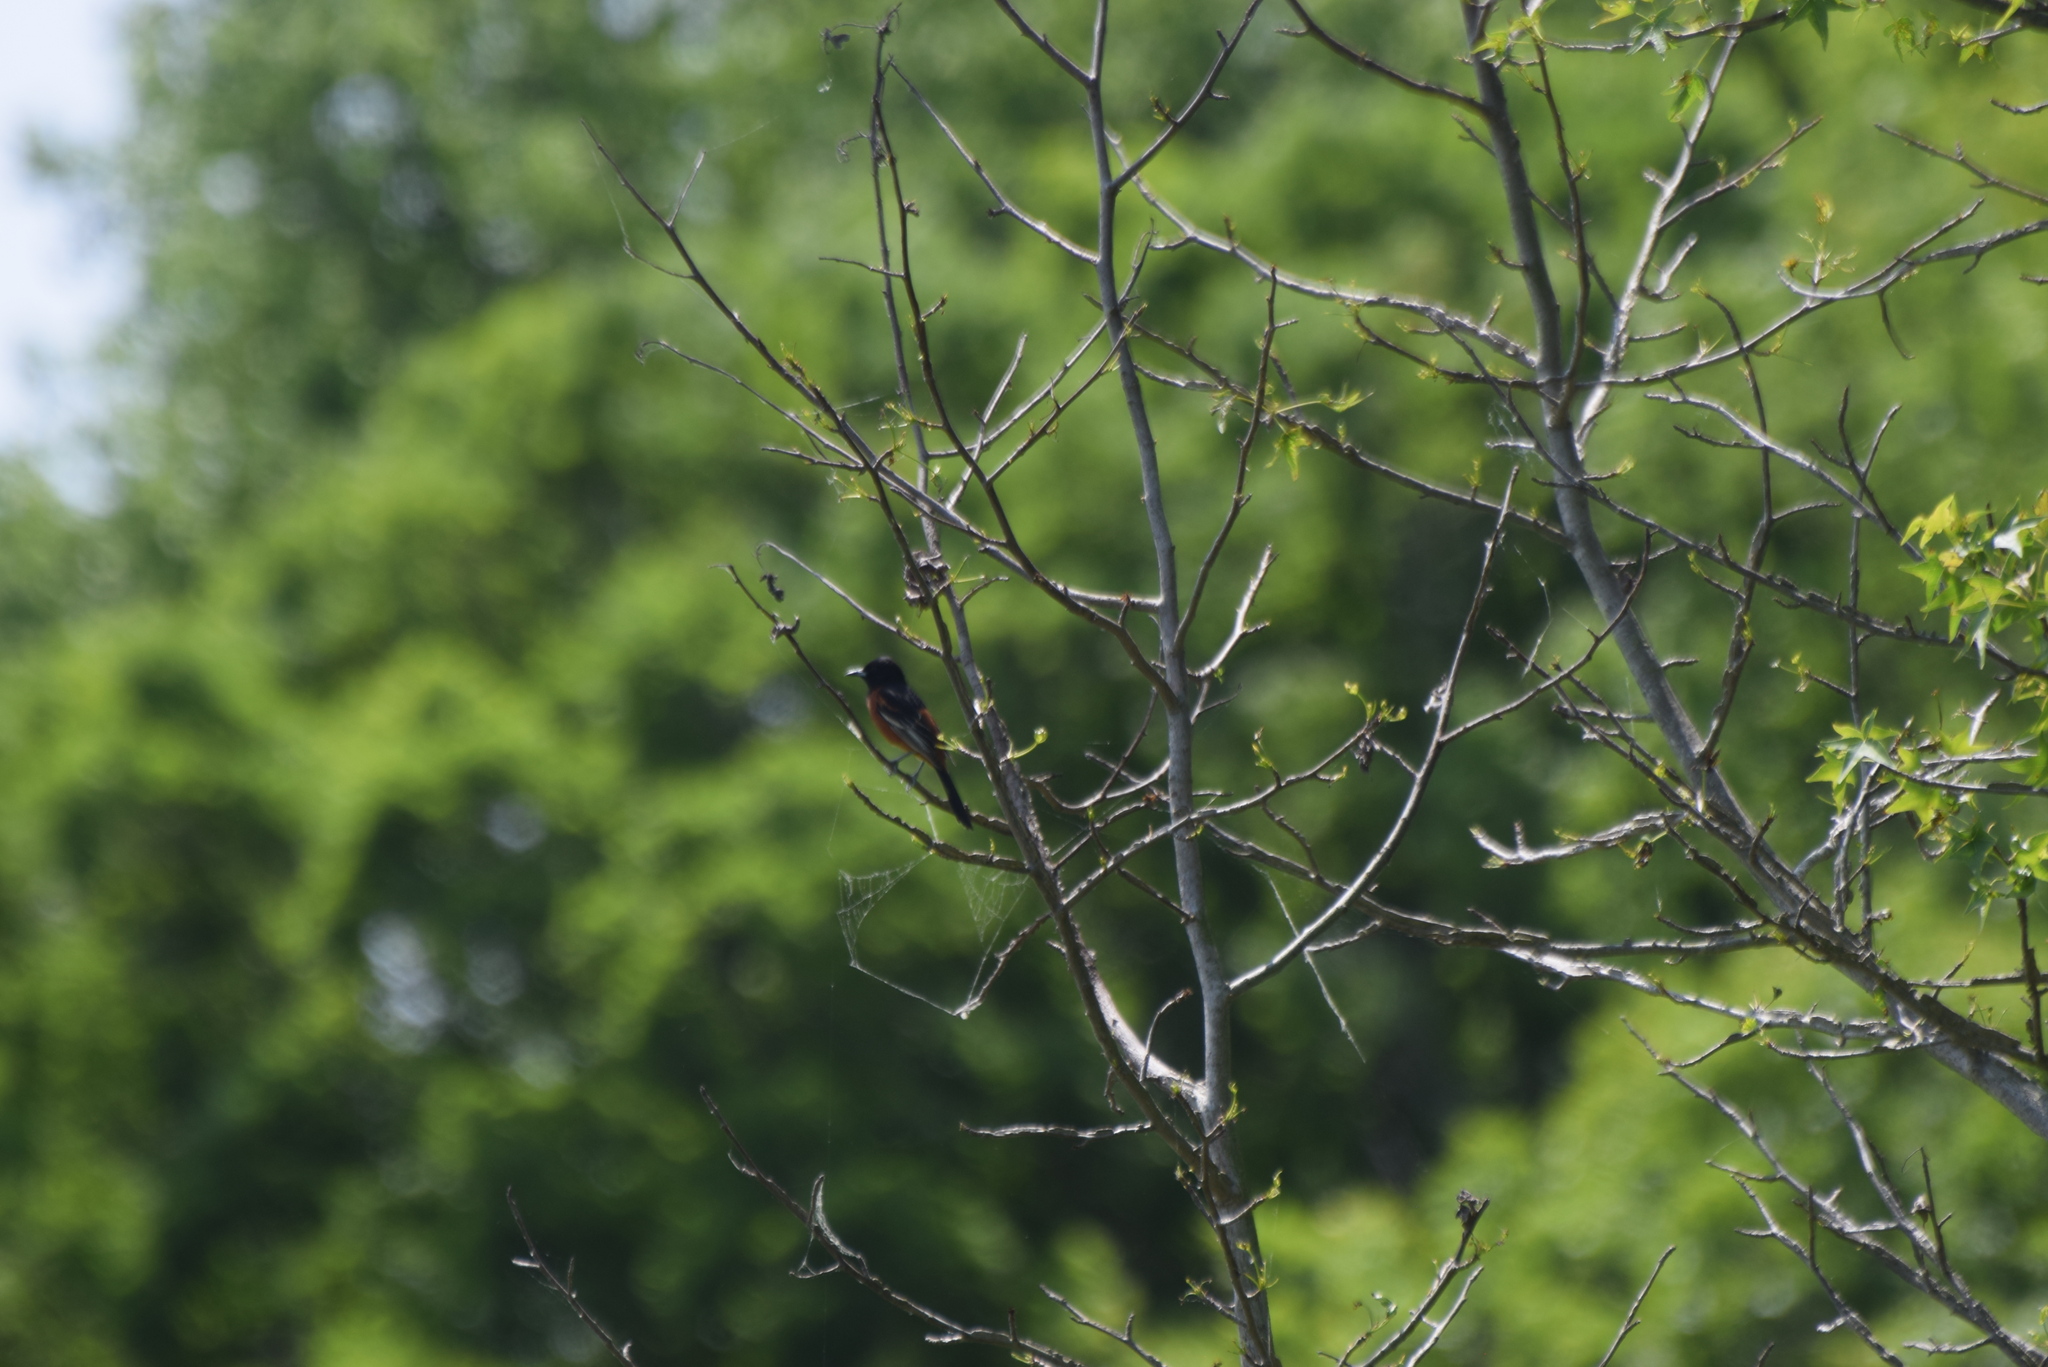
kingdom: Animalia
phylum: Chordata
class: Aves
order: Passeriformes
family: Icteridae
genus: Icterus
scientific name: Icterus spurius
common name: Orchard oriole
